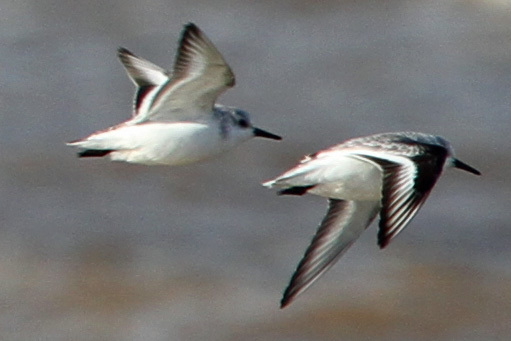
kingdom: Animalia
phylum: Chordata
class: Aves
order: Charadriiformes
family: Scolopacidae
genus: Calidris
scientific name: Calidris alba
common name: Sanderling
